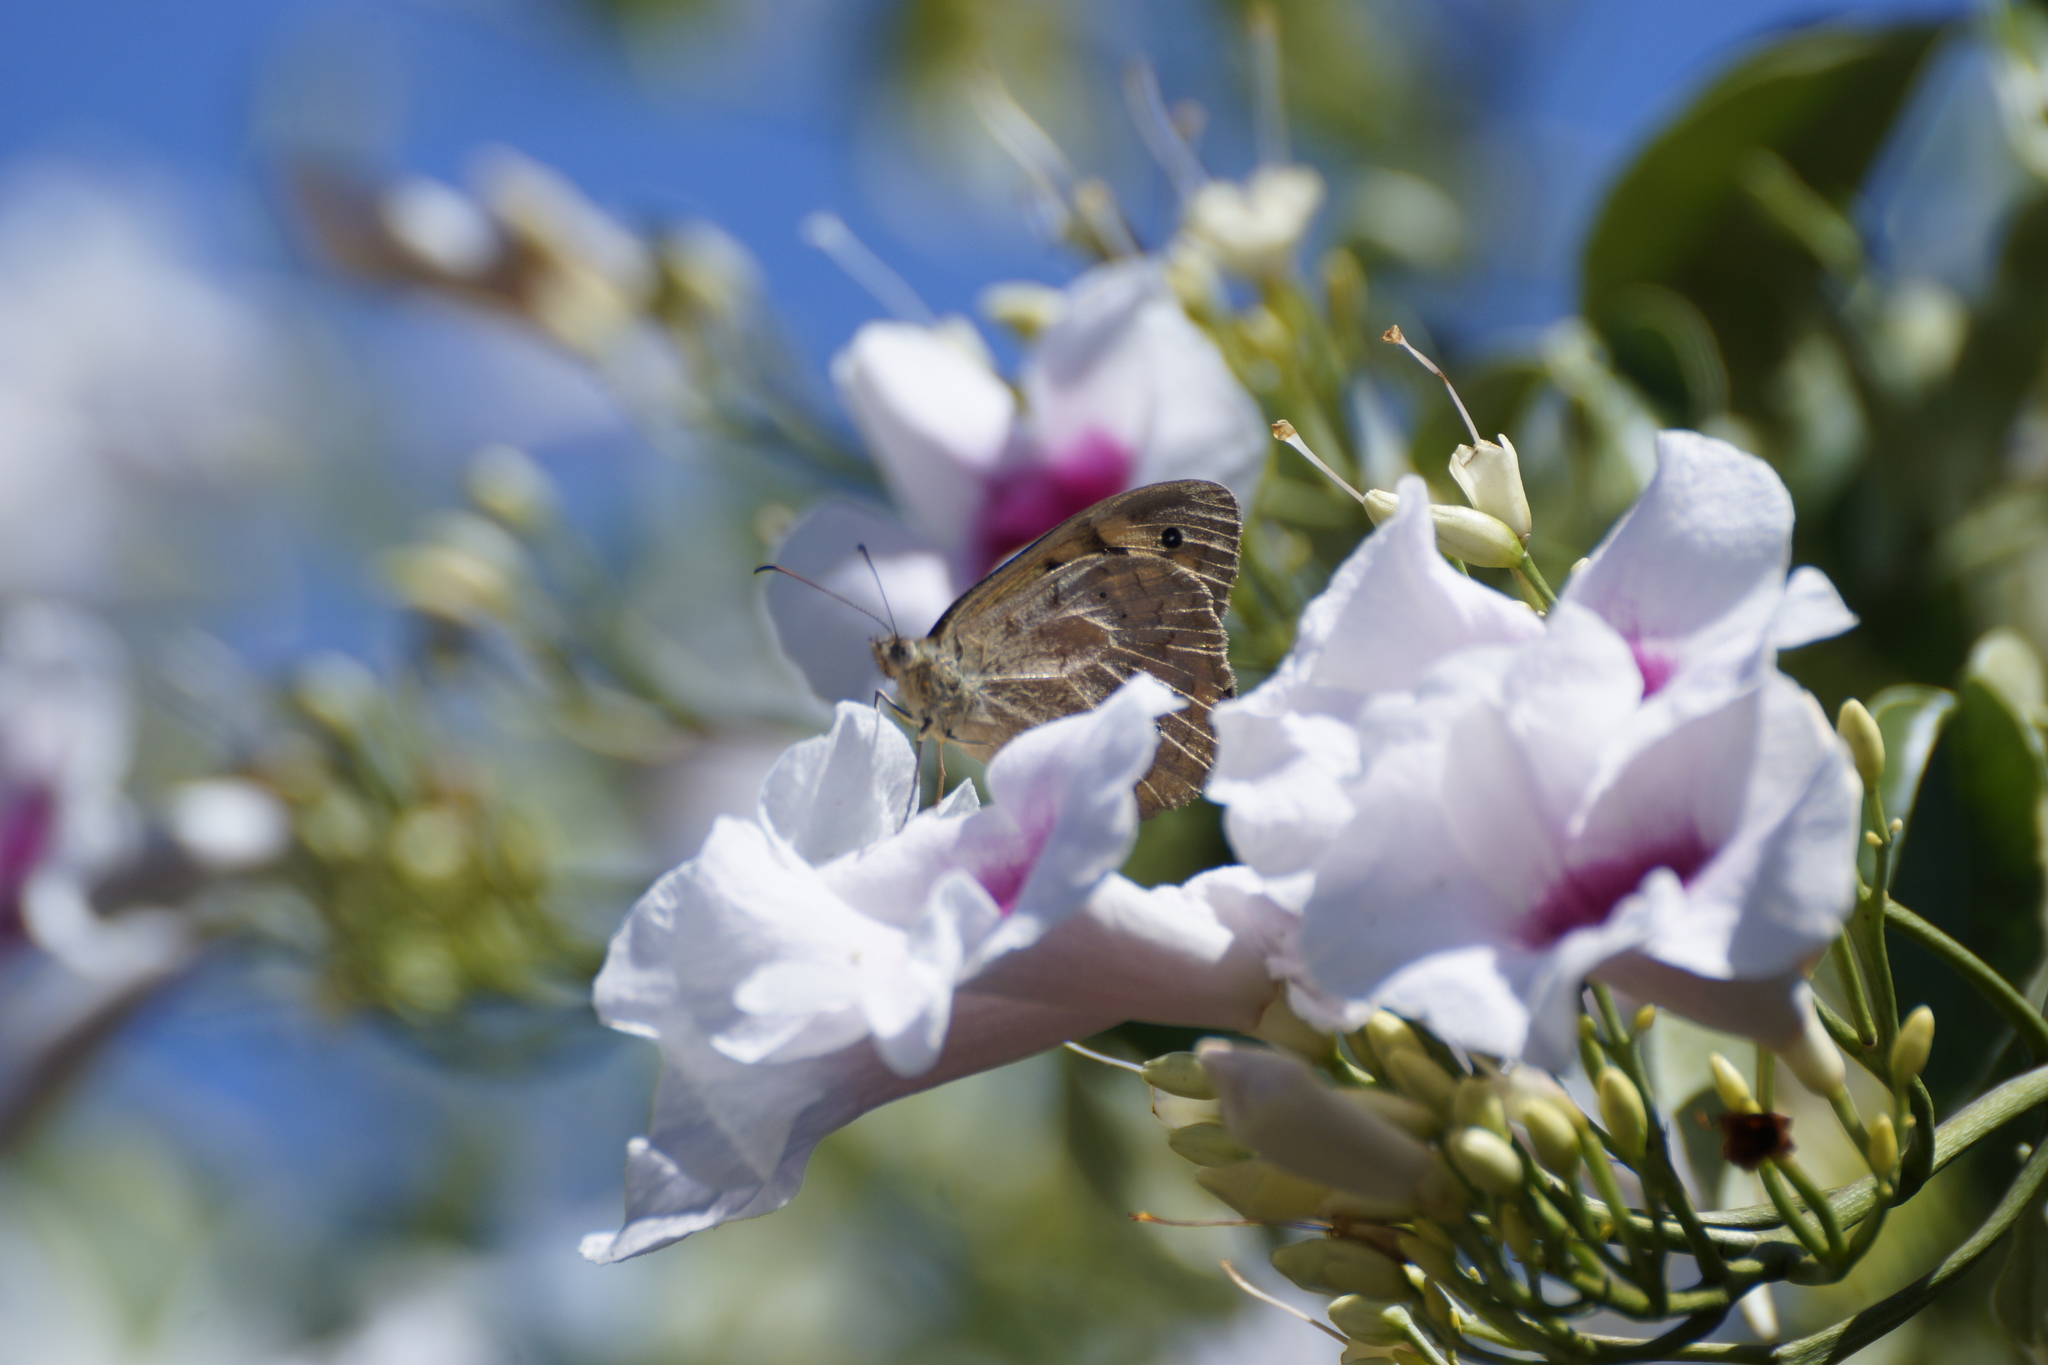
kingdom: Animalia
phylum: Arthropoda
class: Insecta
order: Lepidoptera
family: Nymphalidae
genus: Heteronympha
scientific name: Heteronympha merope
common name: Common brown
